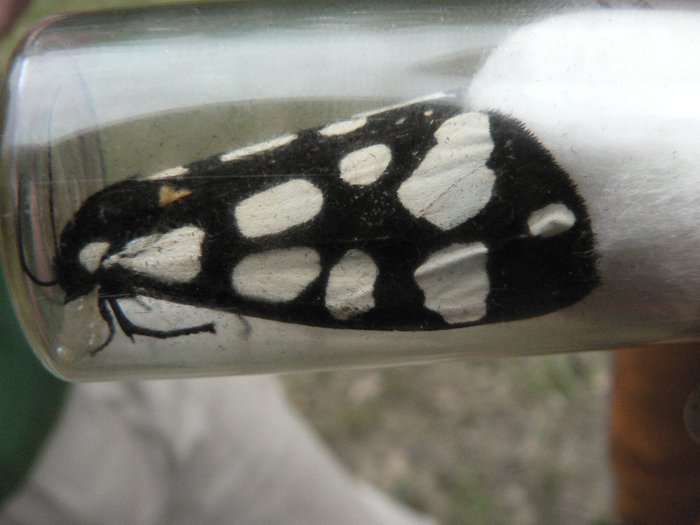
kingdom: Animalia
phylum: Arthropoda
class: Insecta
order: Lepidoptera
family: Erebidae
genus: Epicallia
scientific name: Epicallia villica
